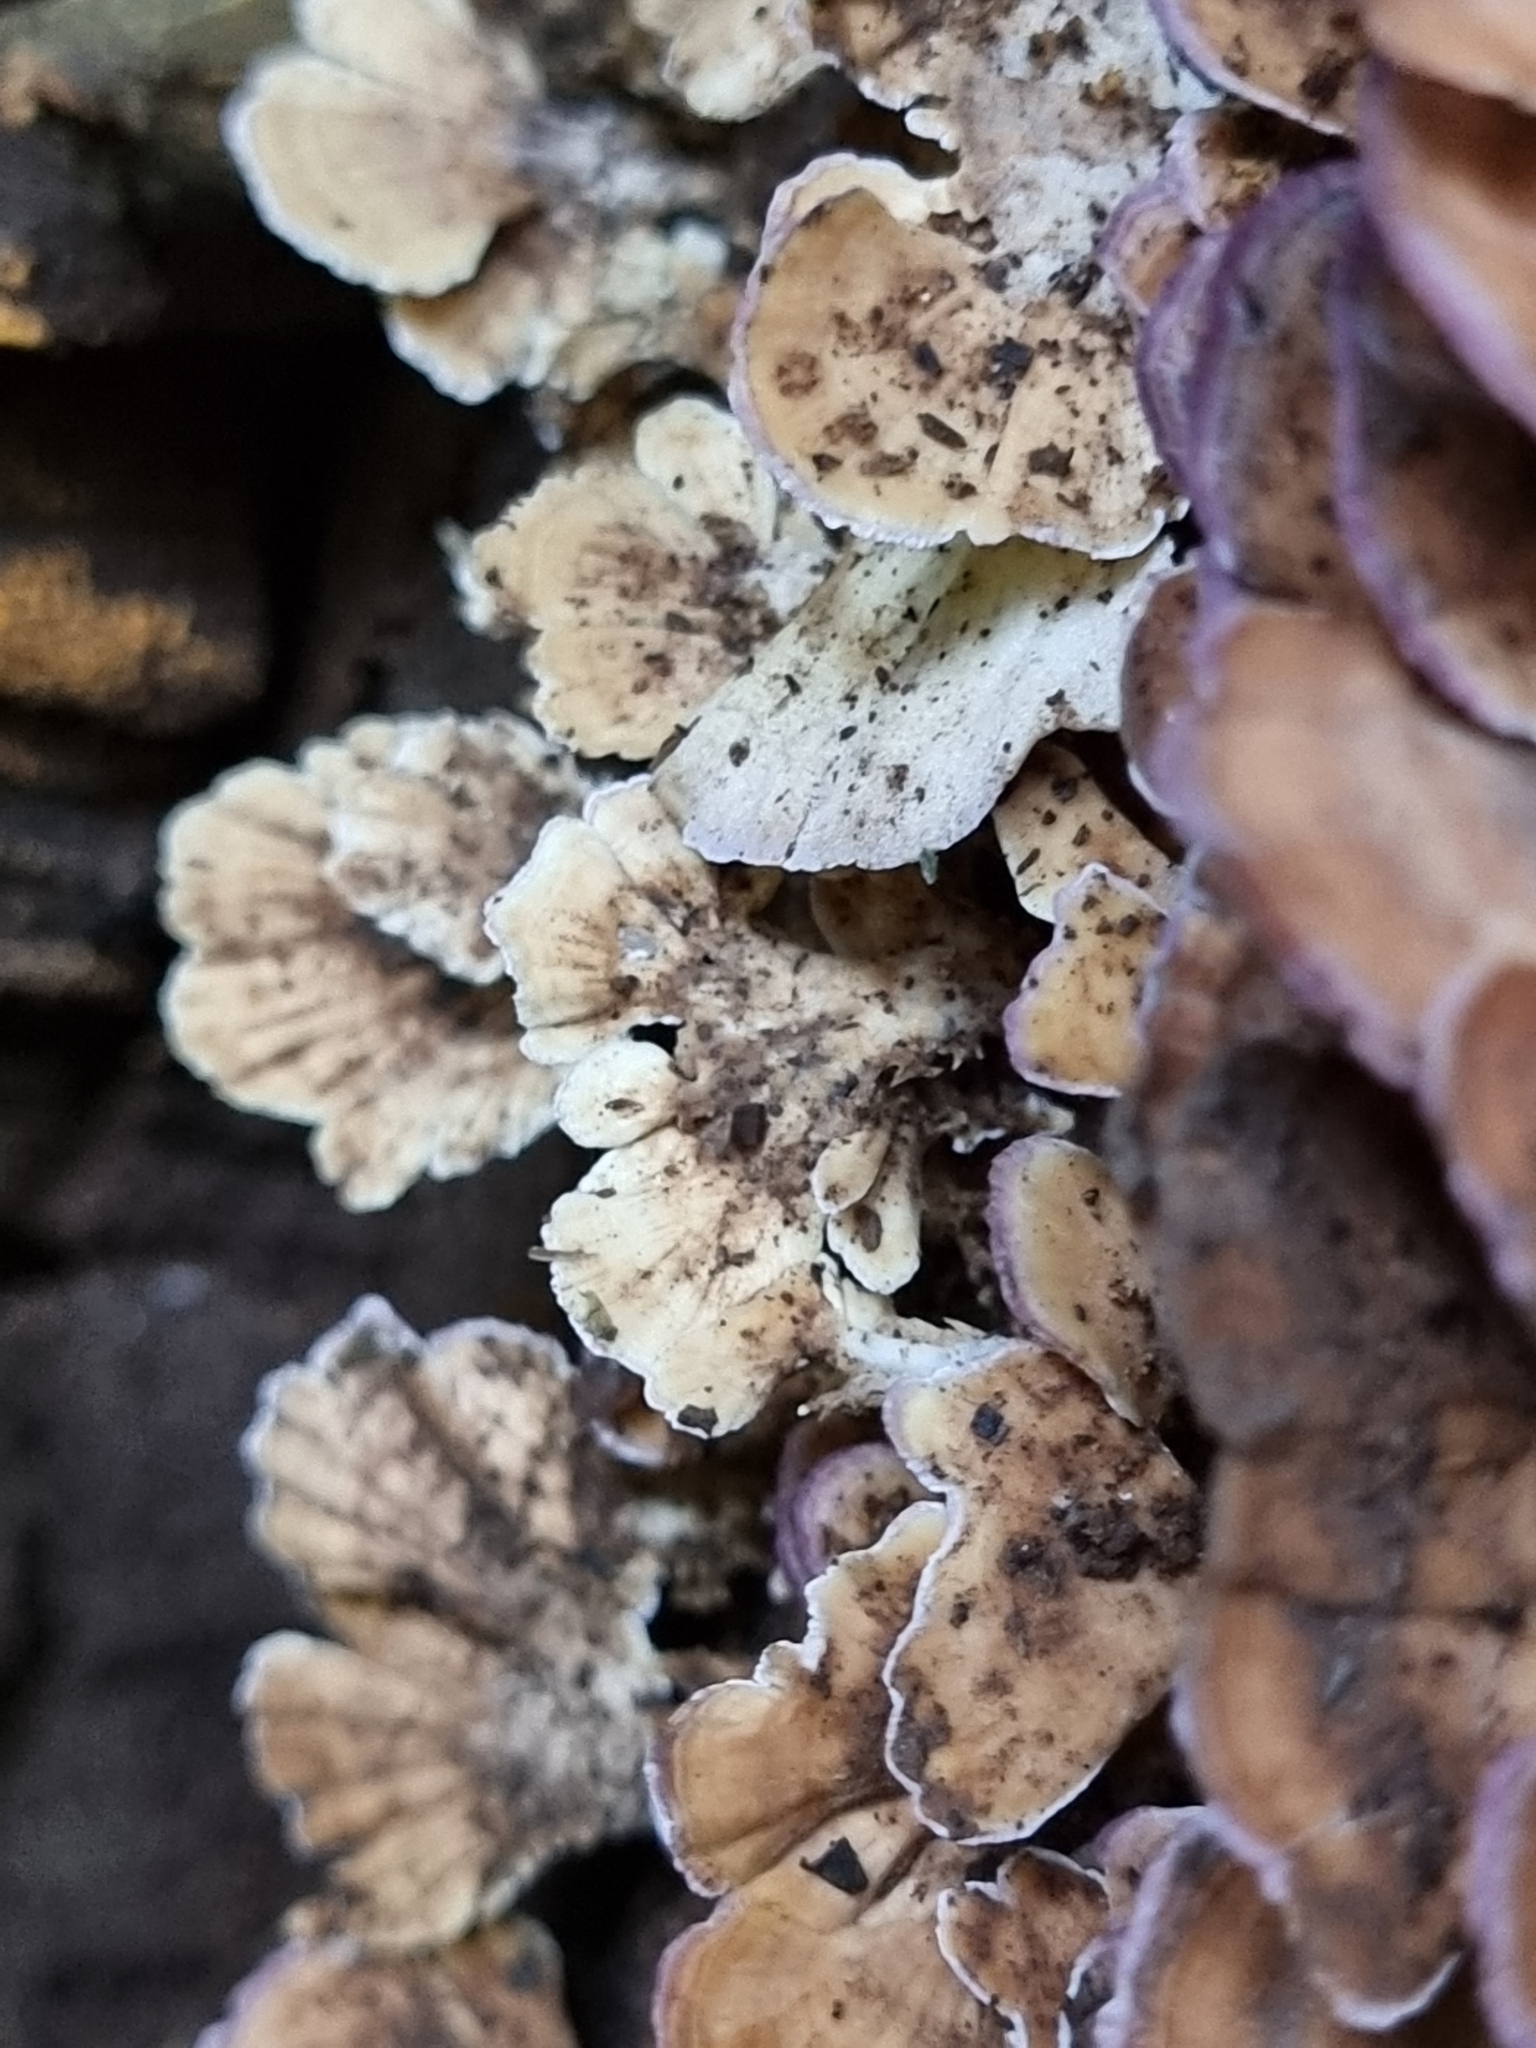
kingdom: Fungi
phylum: Basidiomycota
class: Agaricomycetes
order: Hymenochaetales
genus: Trichaptum
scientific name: Trichaptum biforme
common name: Violet-toothed polypore
